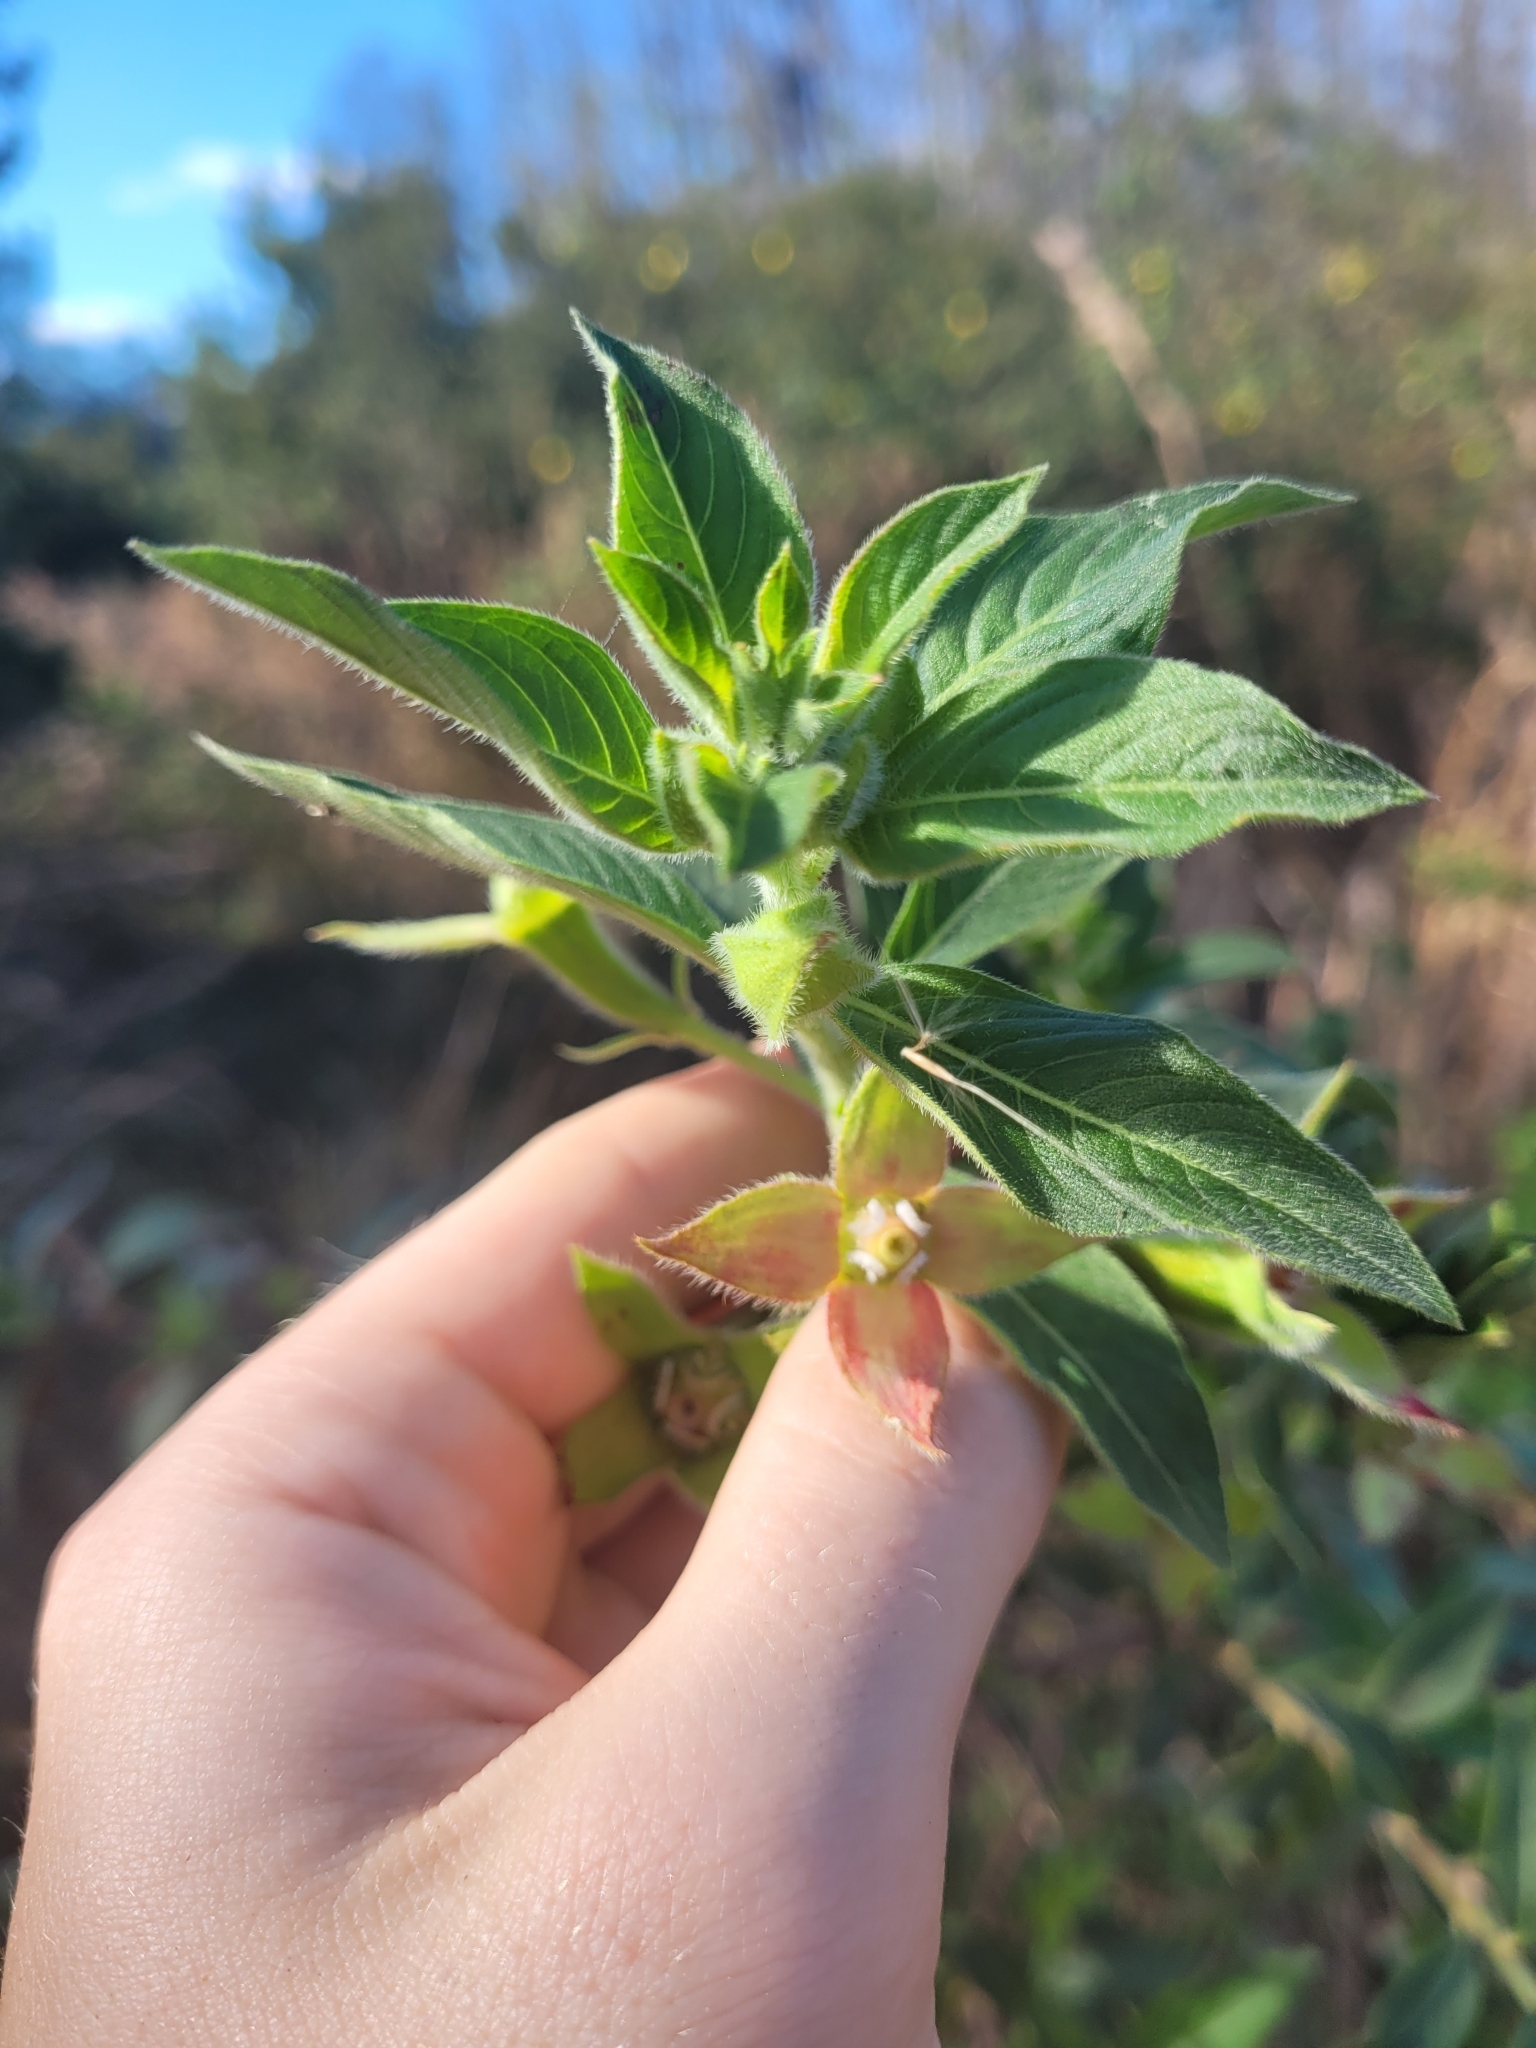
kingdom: Plantae
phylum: Tracheophyta
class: Magnoliopsida
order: Myrtales
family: Onagraceae
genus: Ludwigia
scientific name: Ludwigia peruviana
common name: Peruvian primrose-willow
